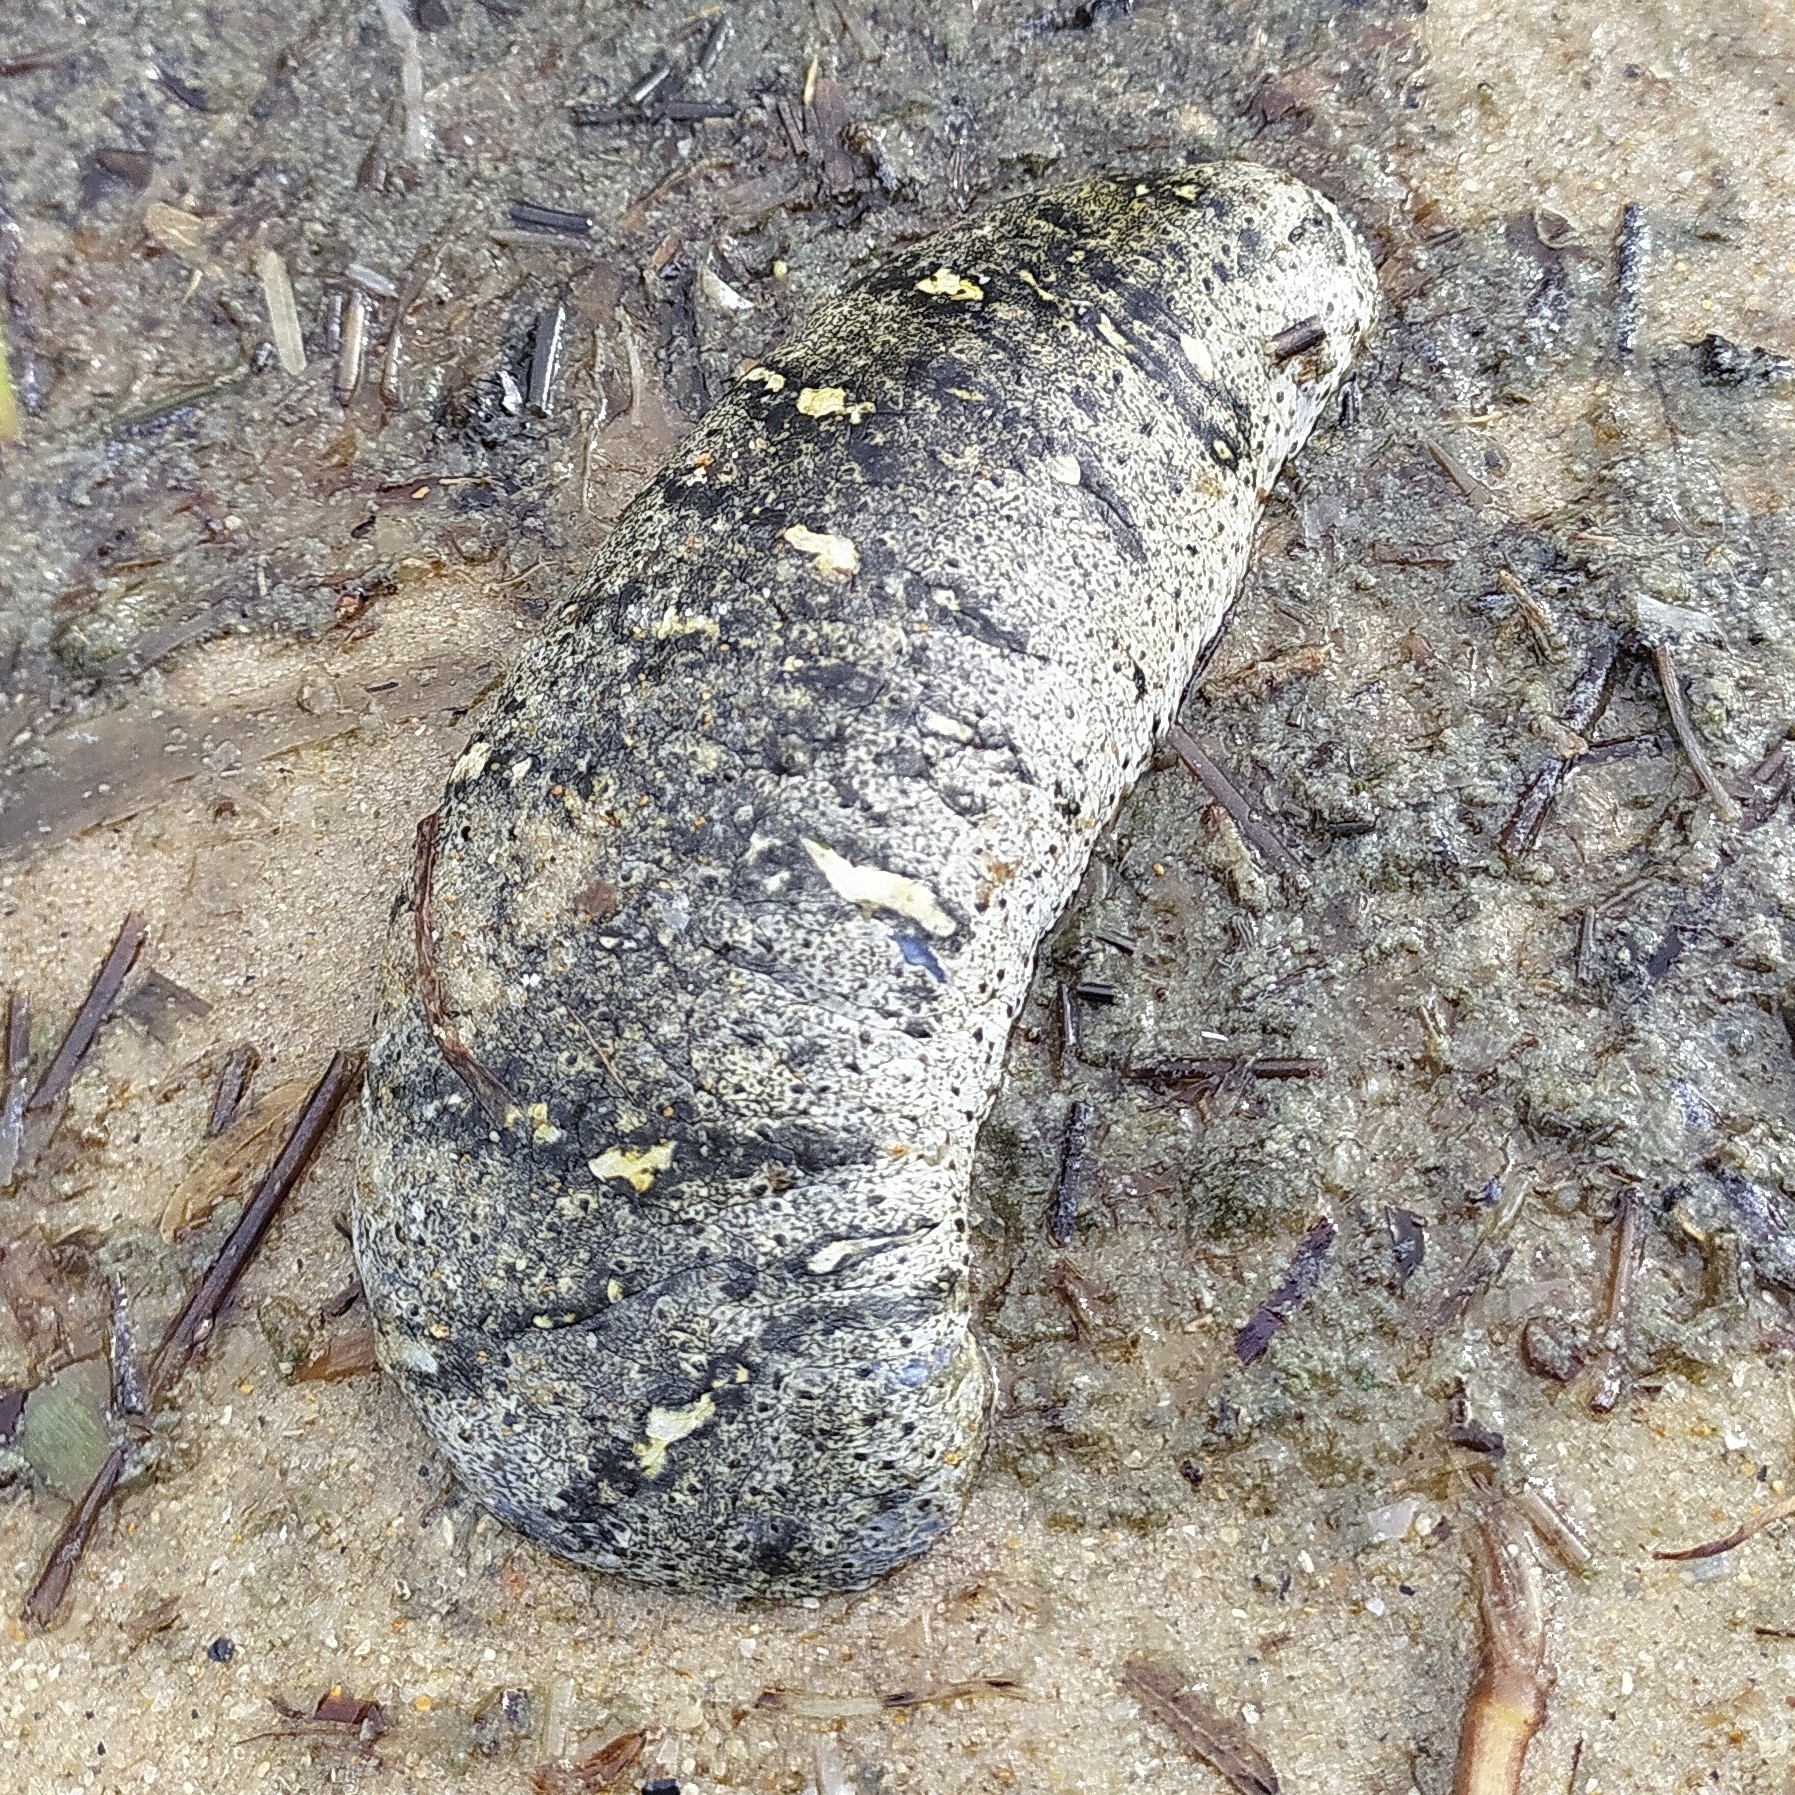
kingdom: Animalia
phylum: Echinodermata
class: Holothuroidea
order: Holothuriida
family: Holothuriidae
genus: Holothuria
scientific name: Holothuria scabra
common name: Golden sandfish
